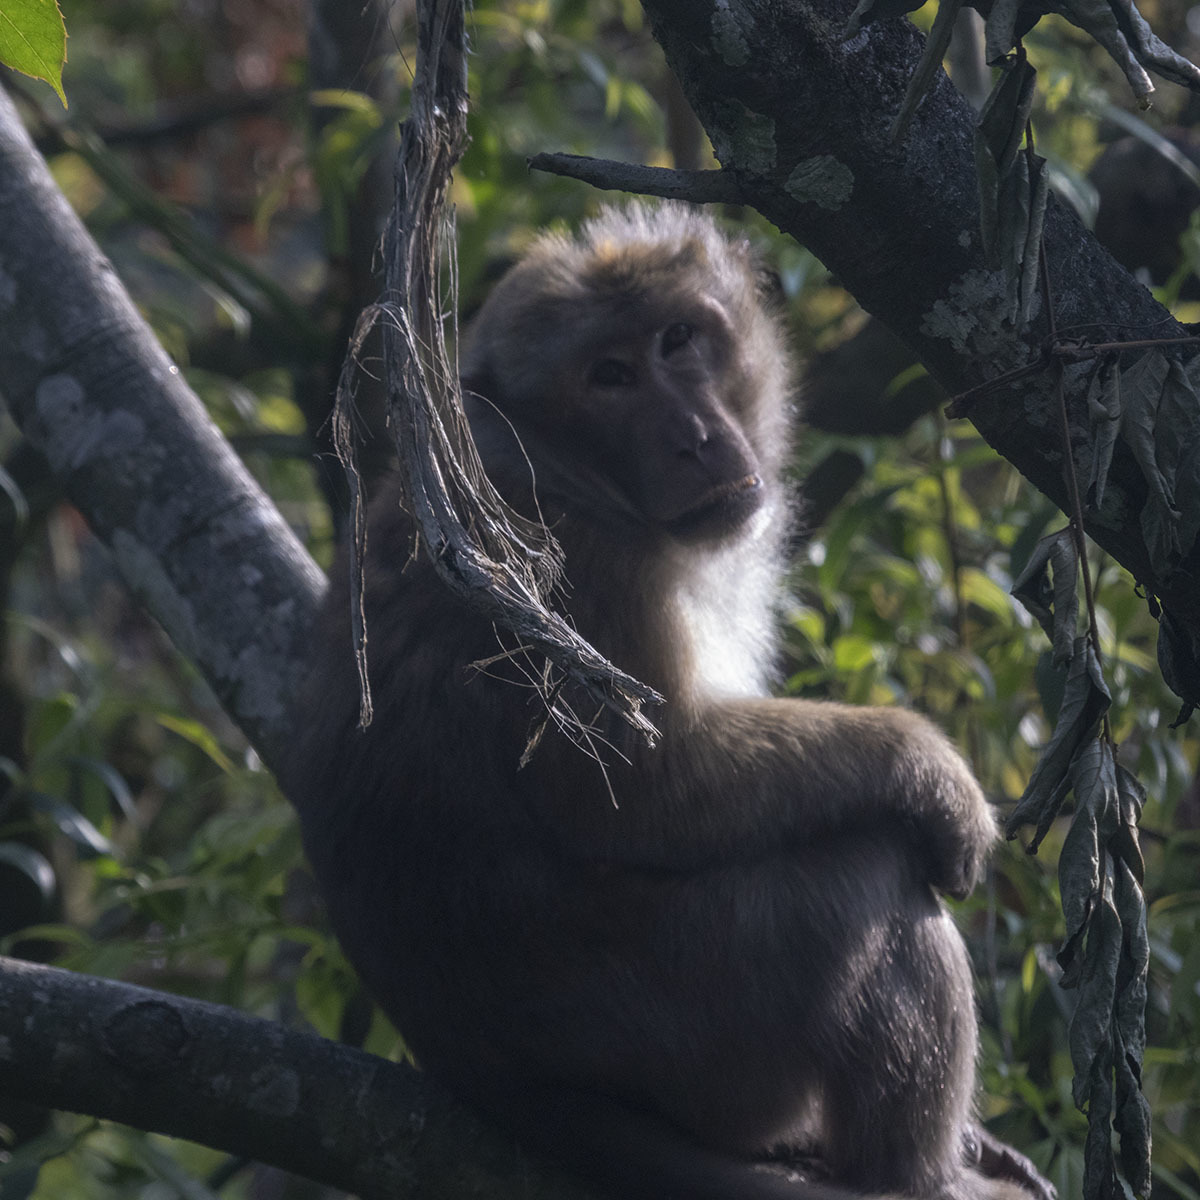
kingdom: Animalia
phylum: Chordata
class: Mammalia
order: Primates
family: Cercopithecidae
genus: Macaca
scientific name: Macaca assamensis
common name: Assam macaque
